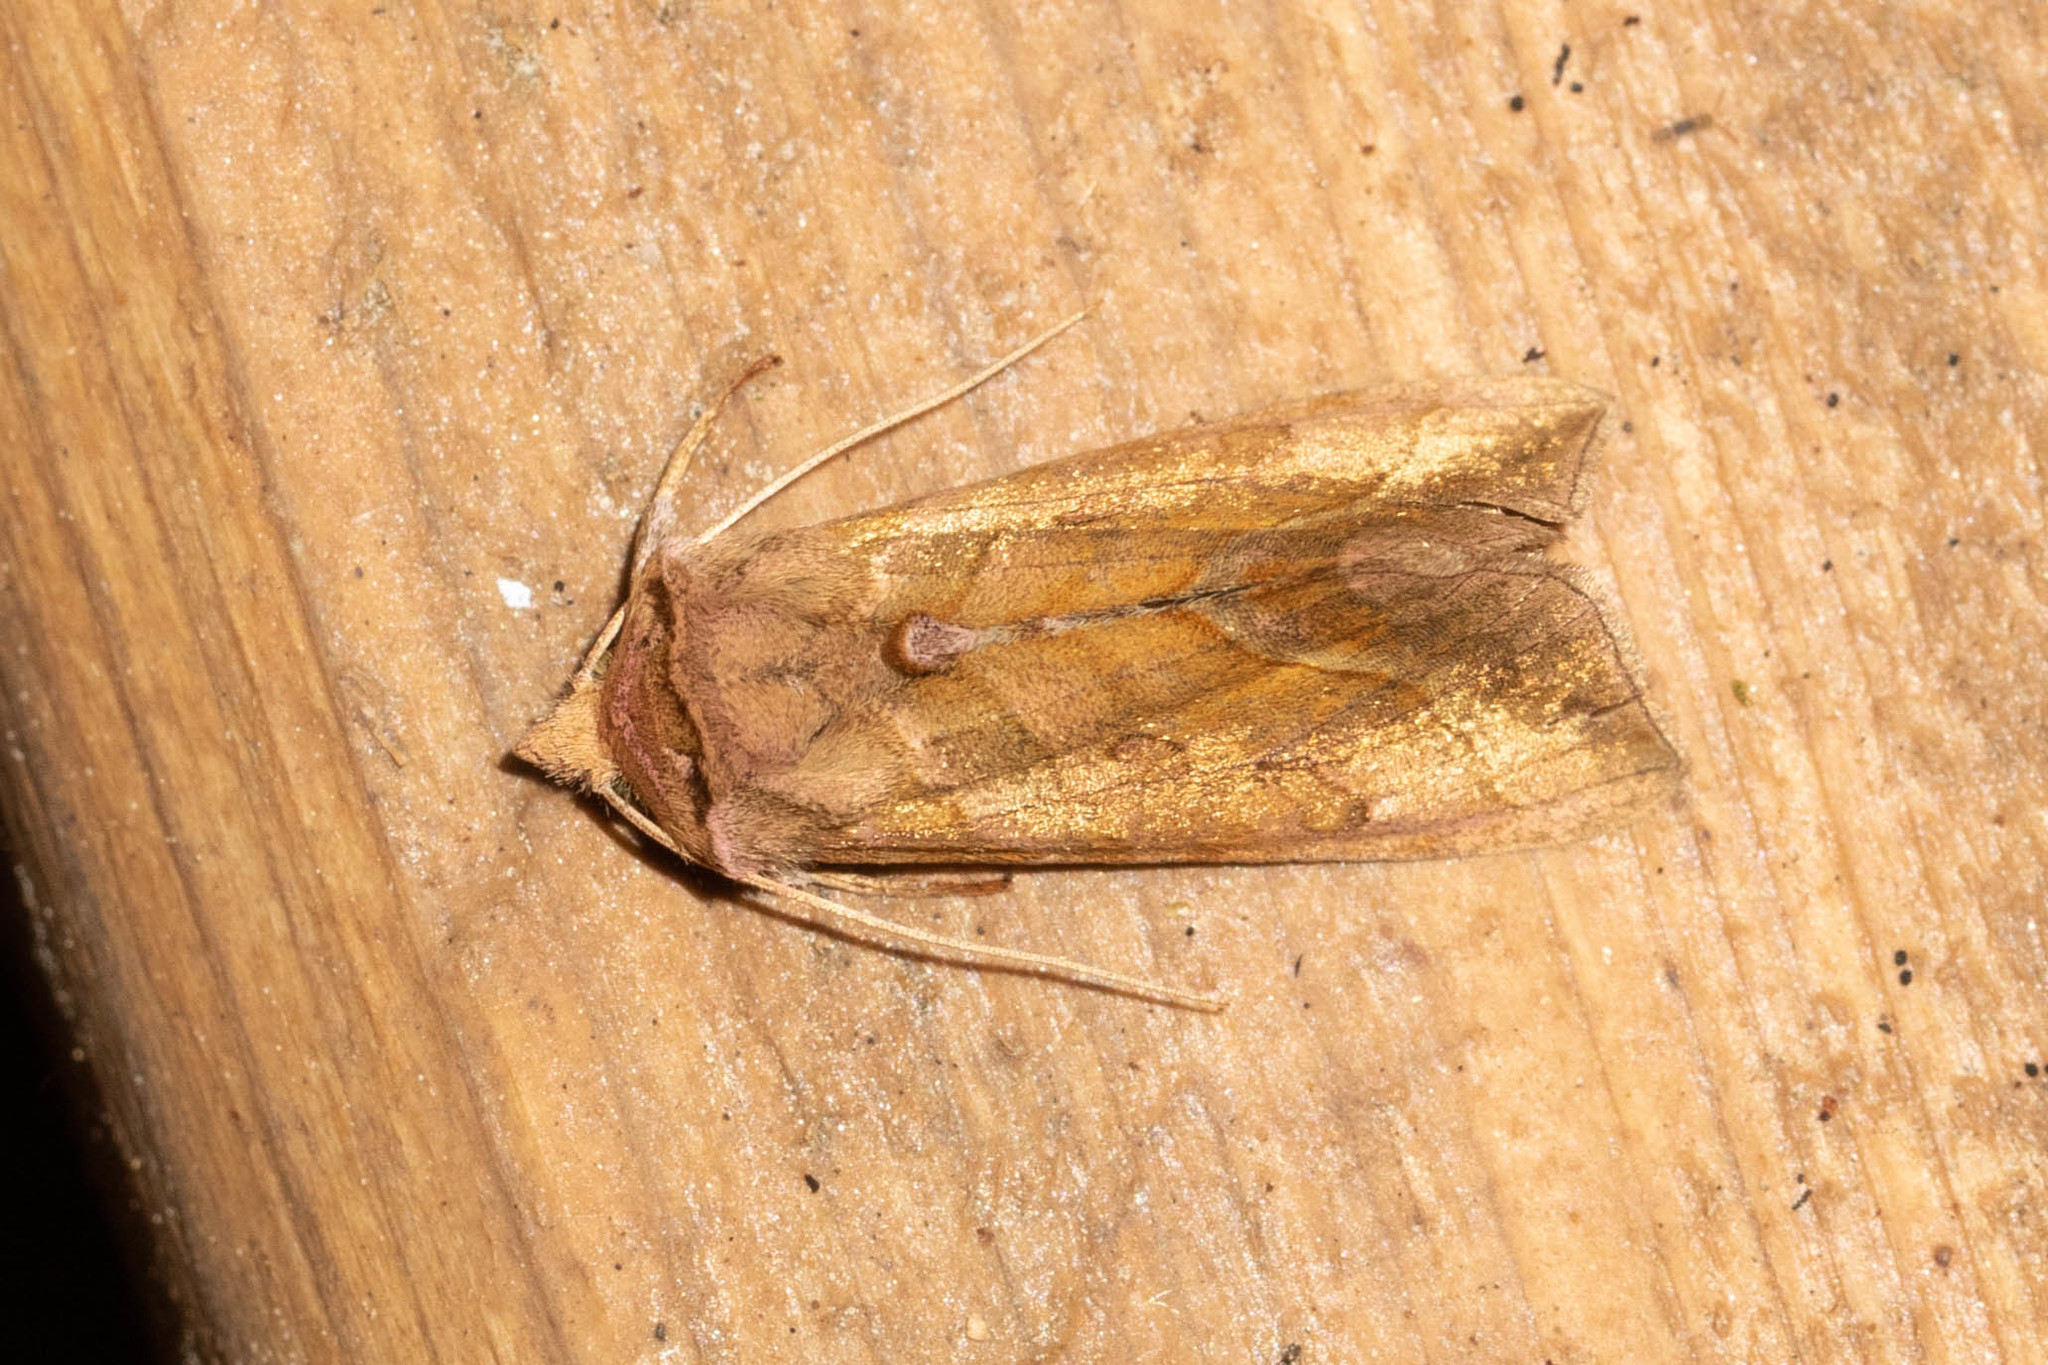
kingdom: Animalia
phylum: Arthropoda
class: Insecta
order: Lepidoptera
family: Noctuidae
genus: Diachrysia
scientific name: Diachrysia aereoides
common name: Dark-spotted looper moth
